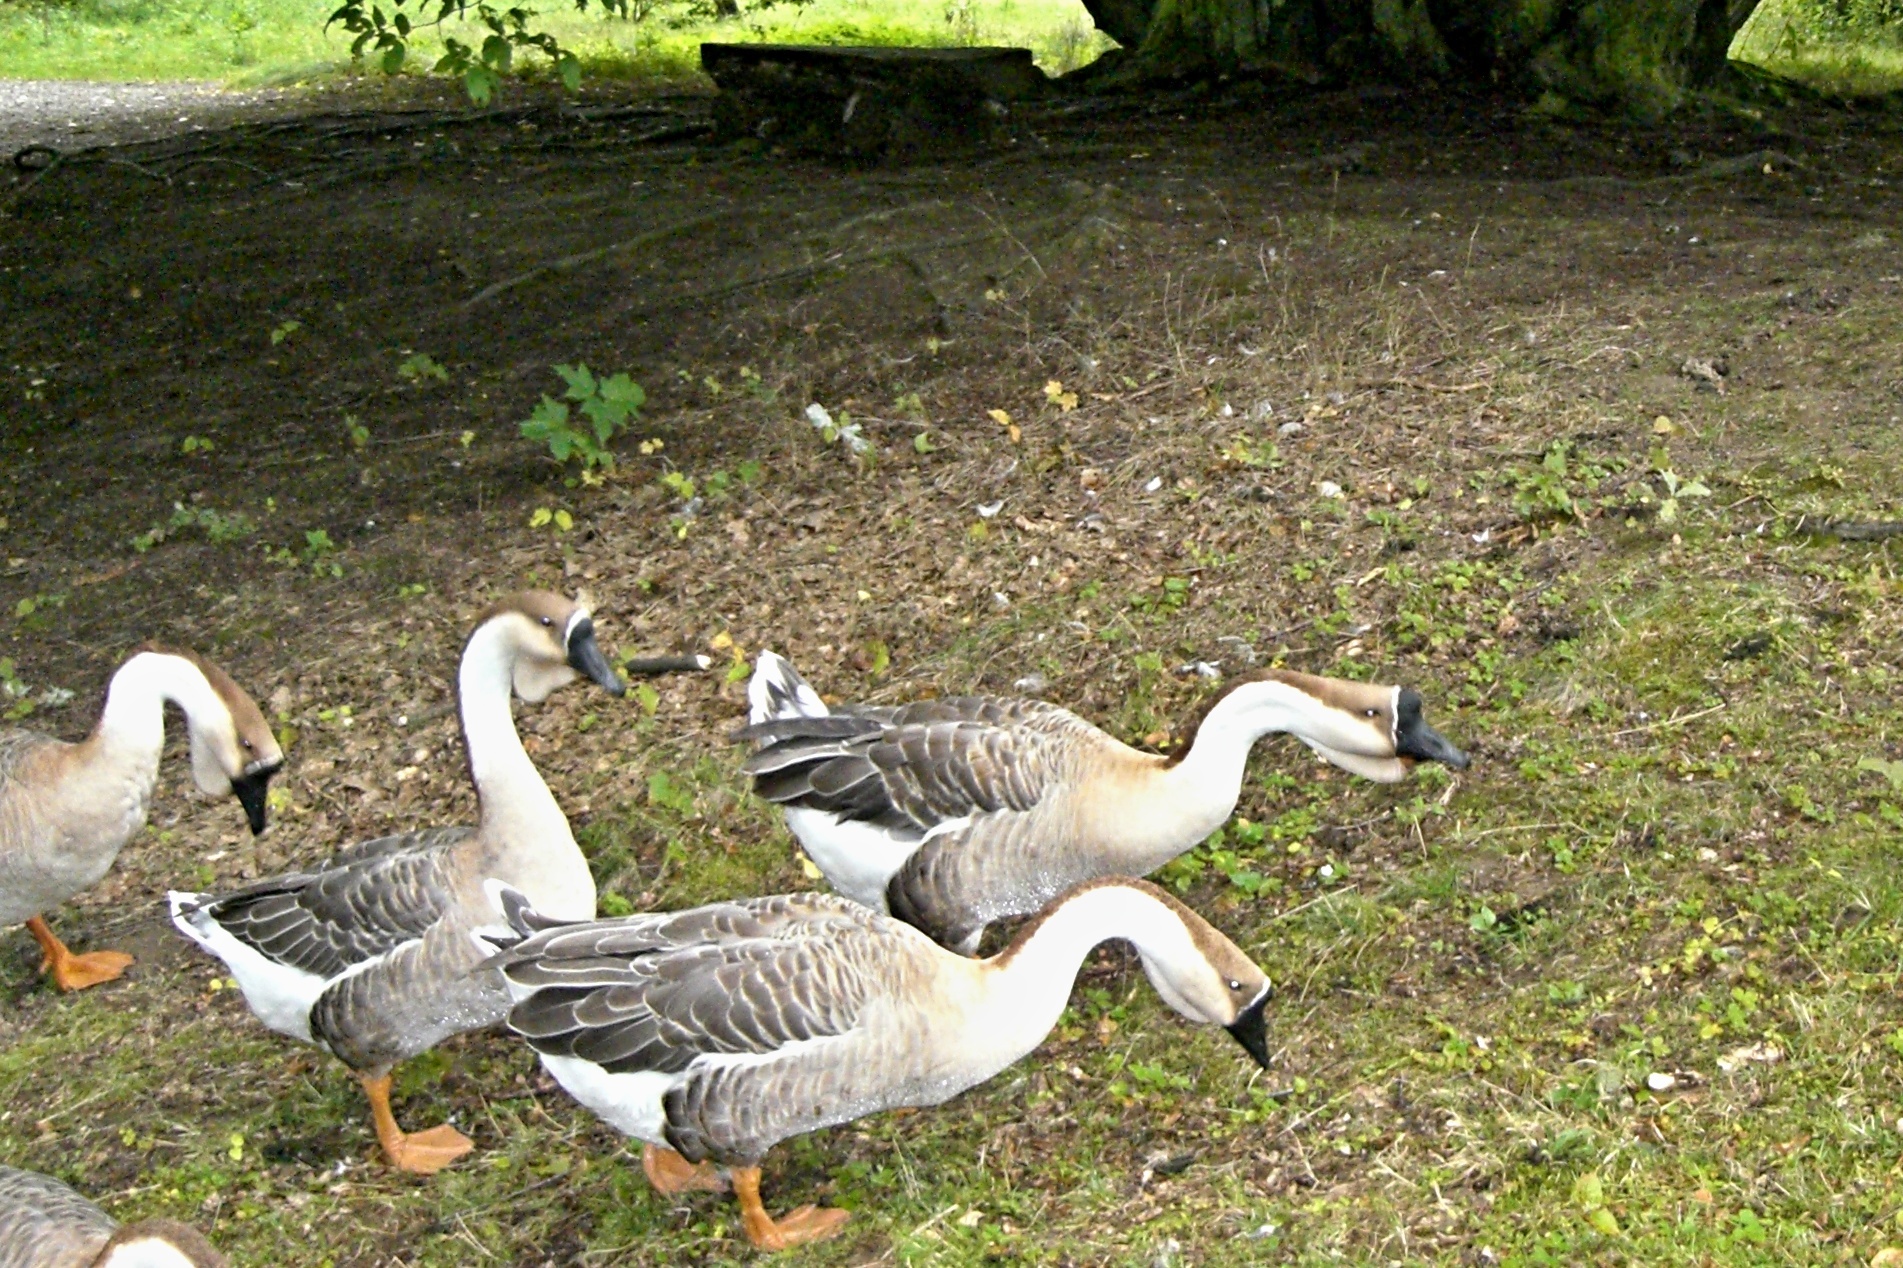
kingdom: Animalia
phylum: Chordata
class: Aves
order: Anseriformes
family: Anatidae
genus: Anser
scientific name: Anser cygnoides
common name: Swan goose
